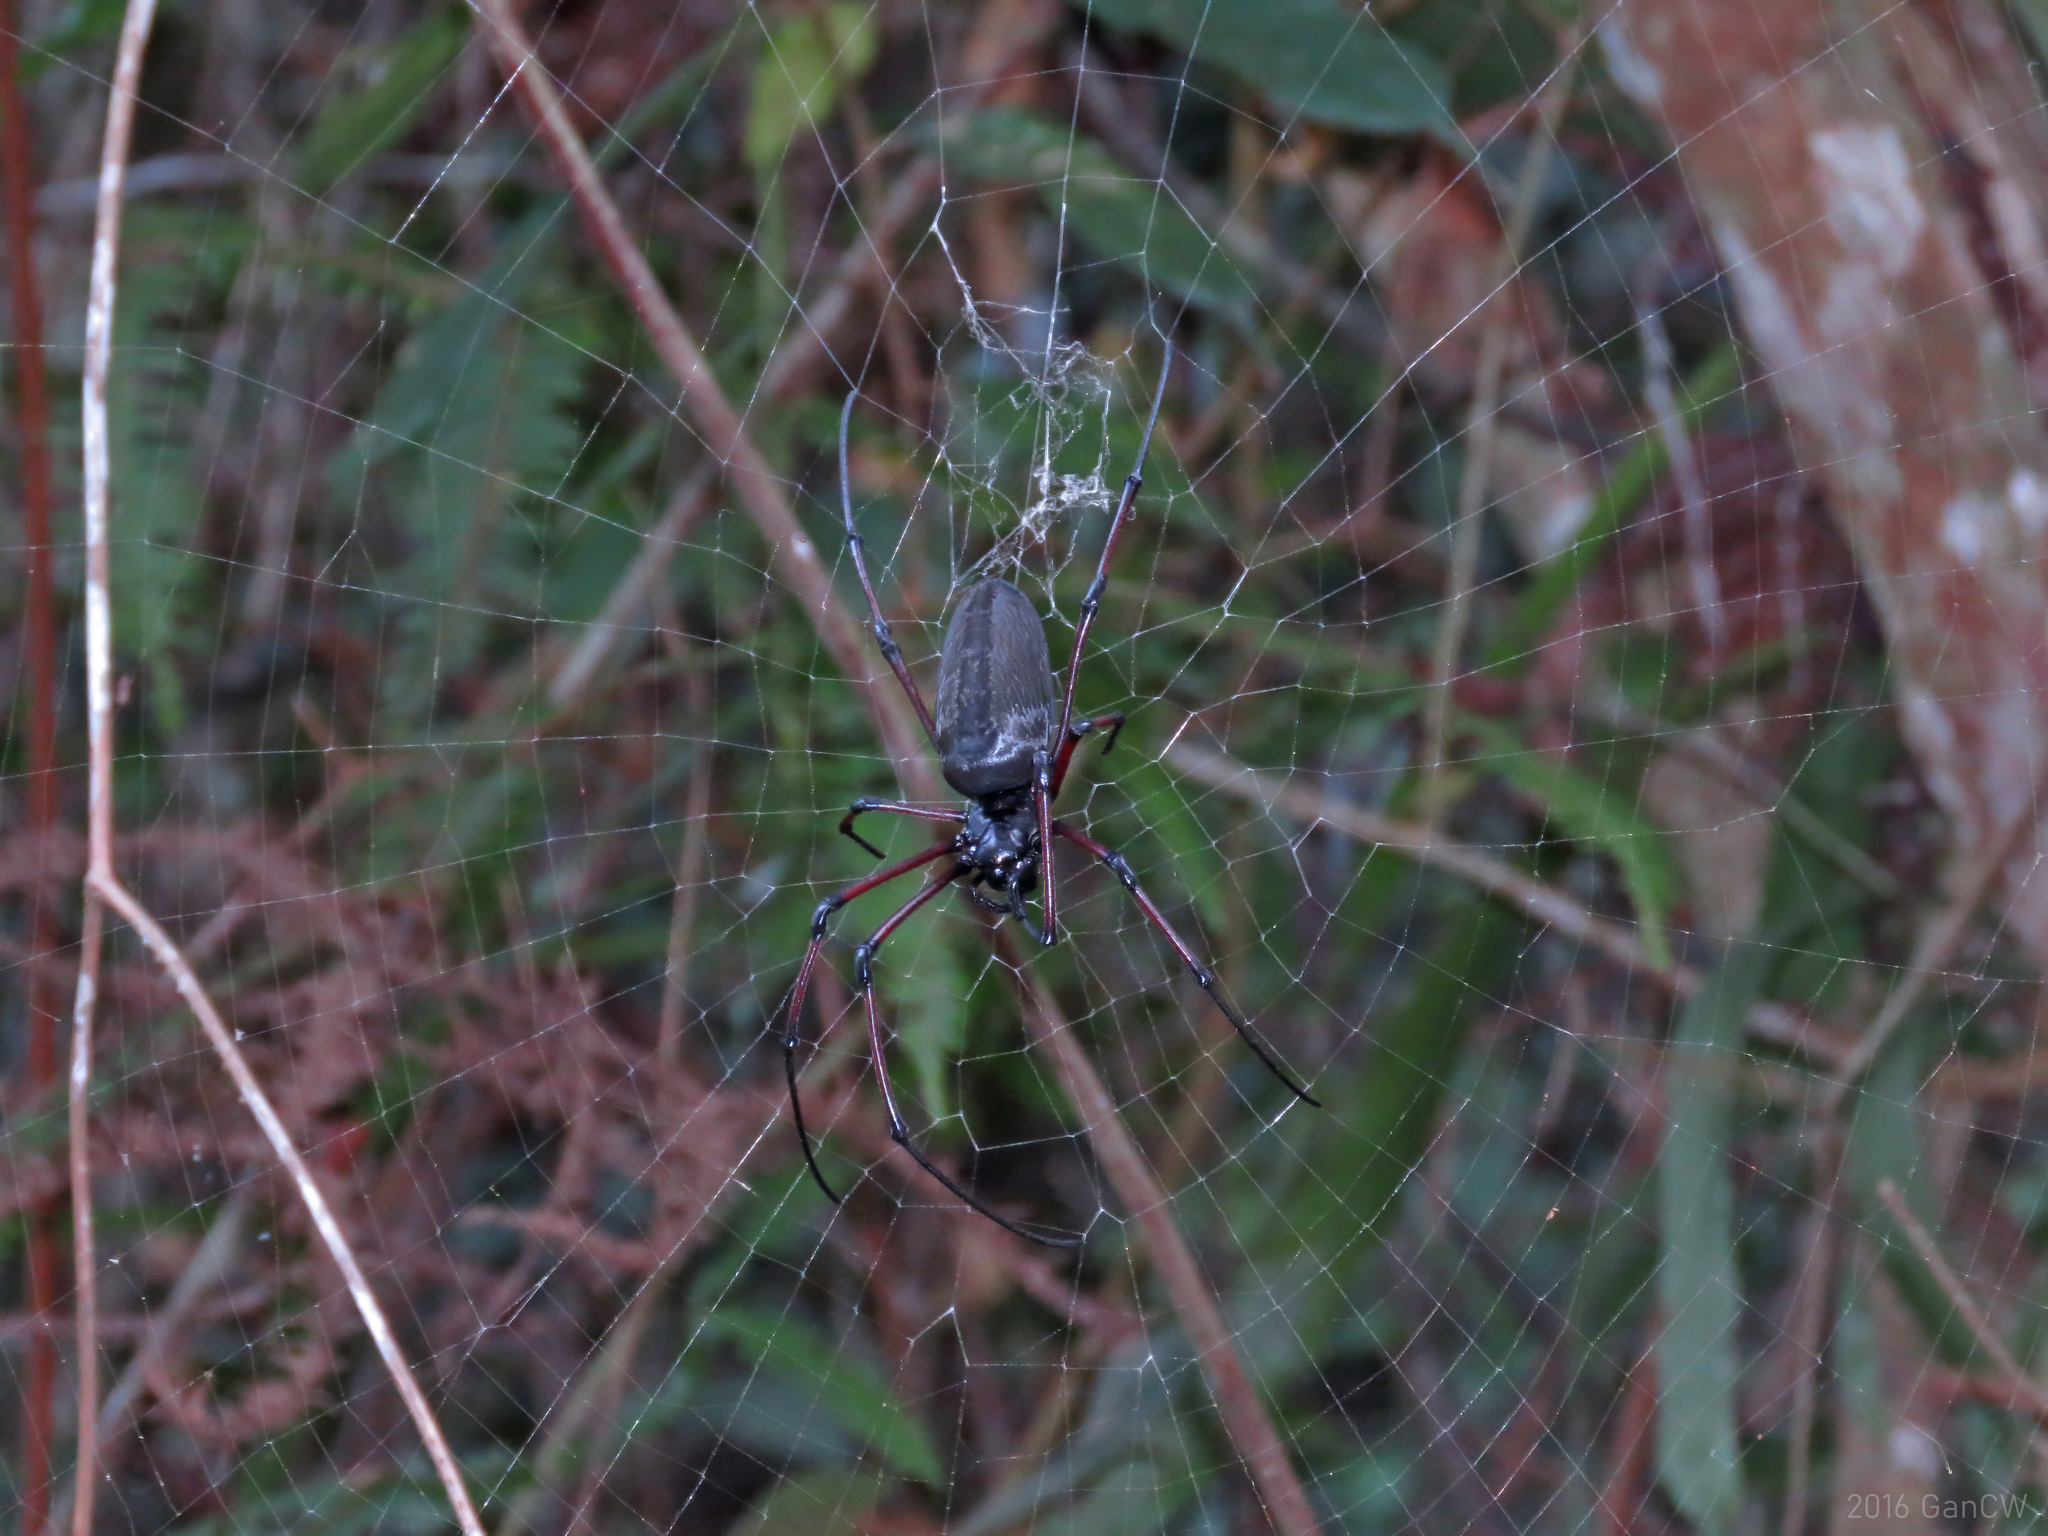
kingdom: Animalia
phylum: Arthropoda
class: Arachnida
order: Araneae
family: Araneidae
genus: Nephila
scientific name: Nephila kuhli
